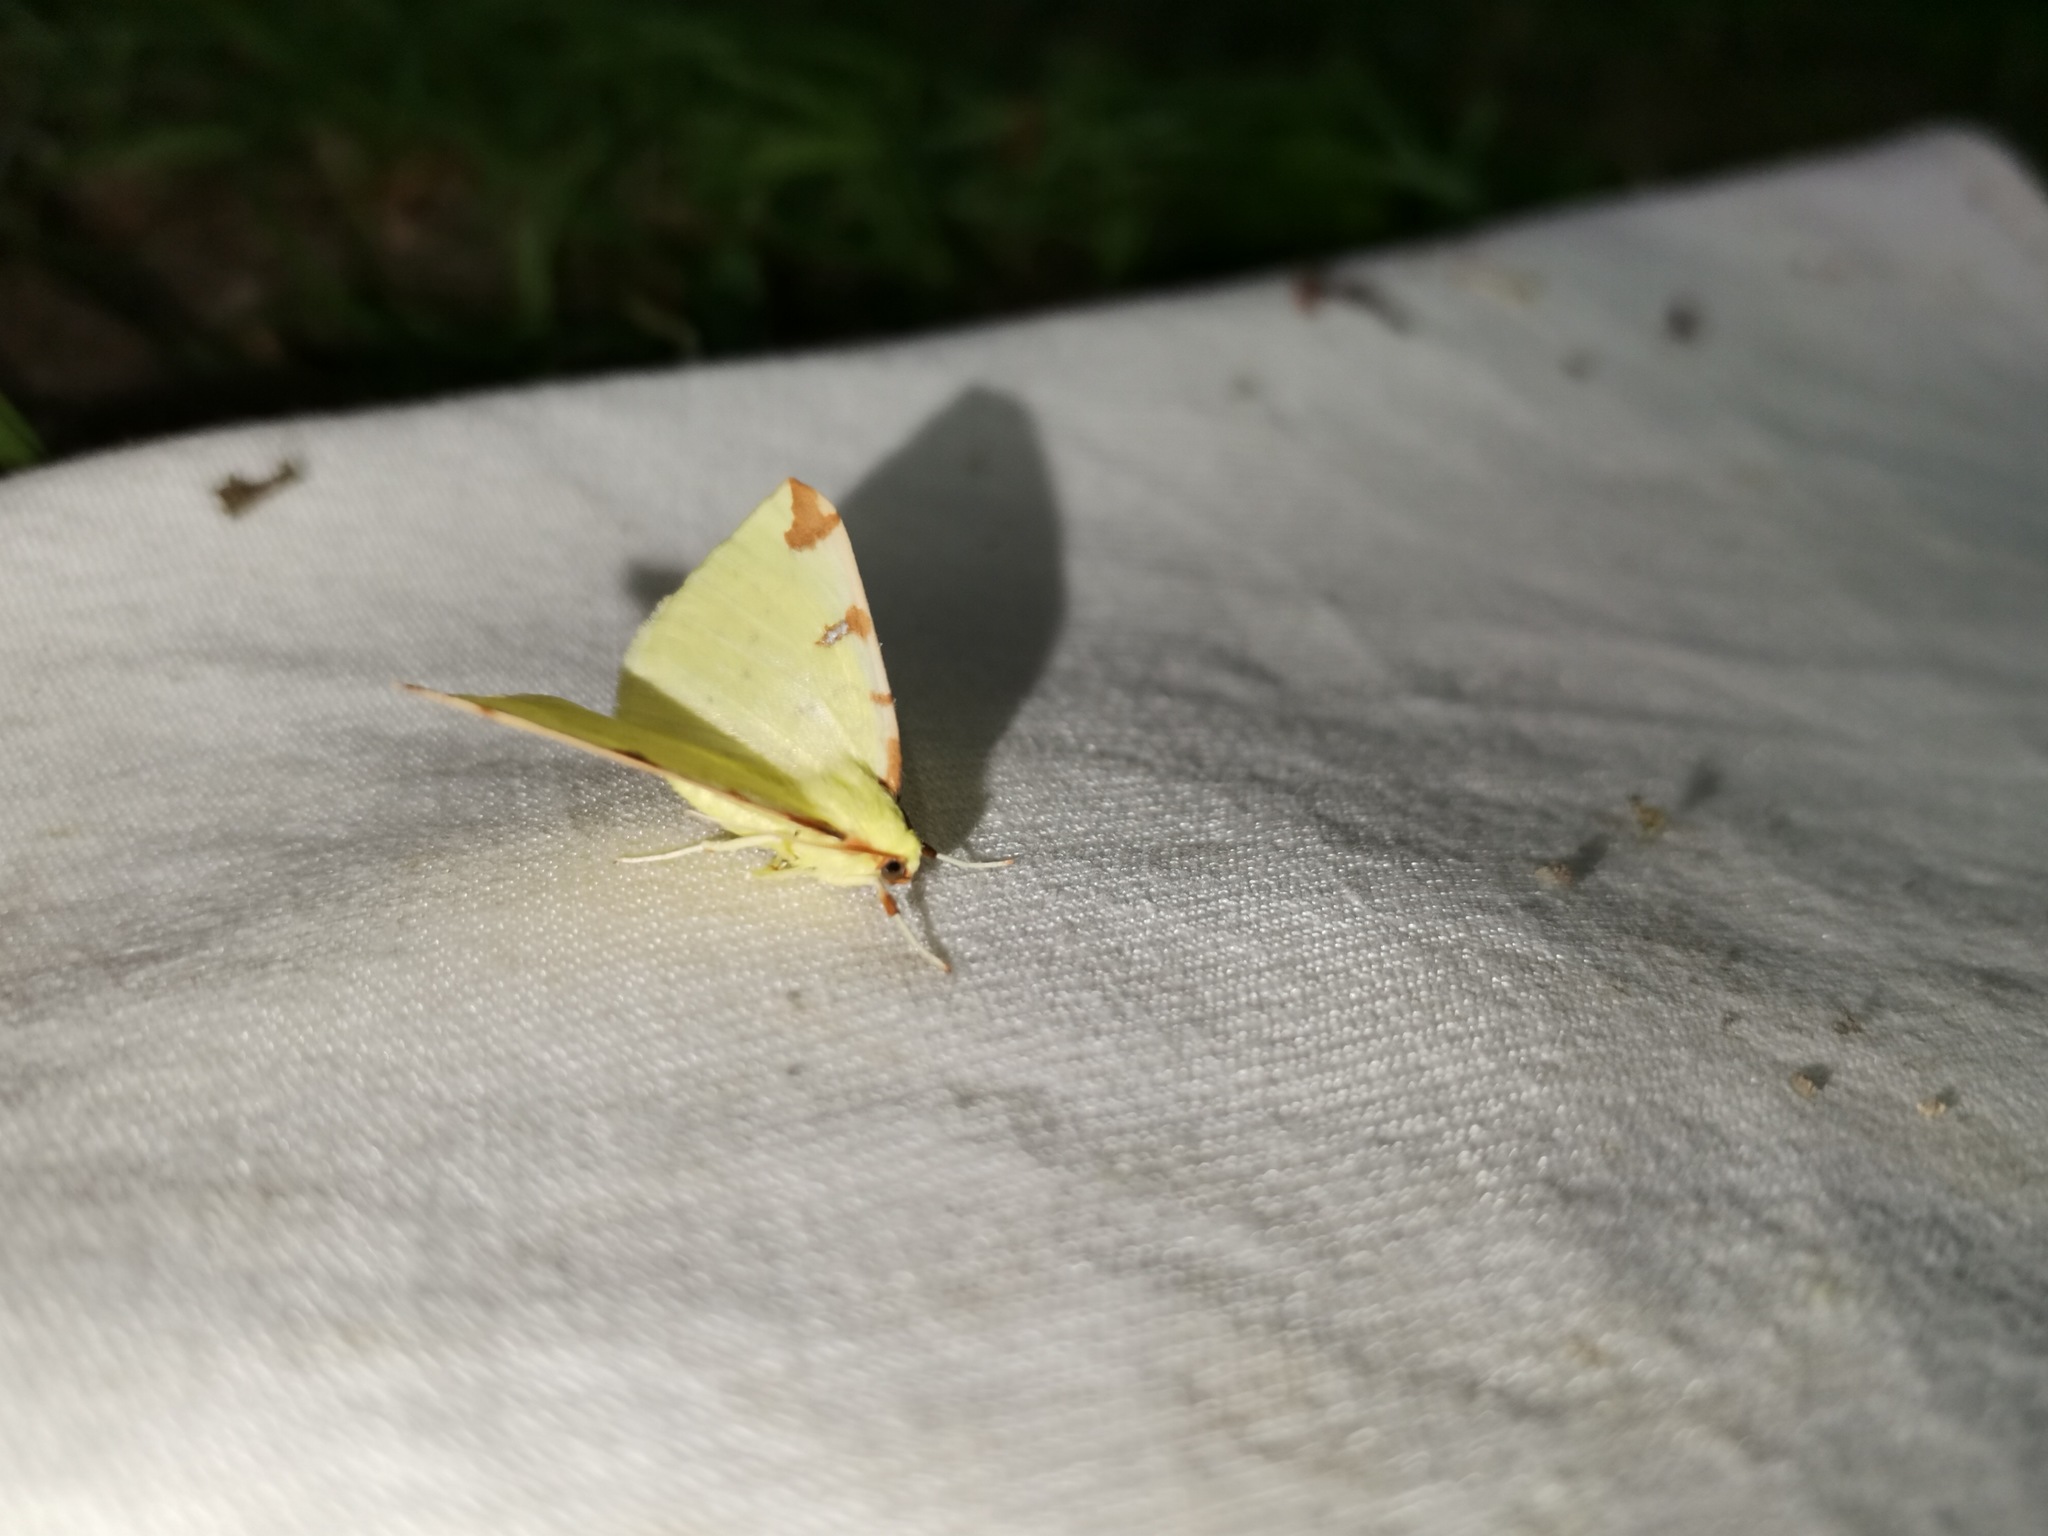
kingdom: Animalia
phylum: Arthropoda
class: Insecta
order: Lepidoptera
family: Geometridae
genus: Opisthograptis
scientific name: Opisthograptis luteolata
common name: Brimstone moth
